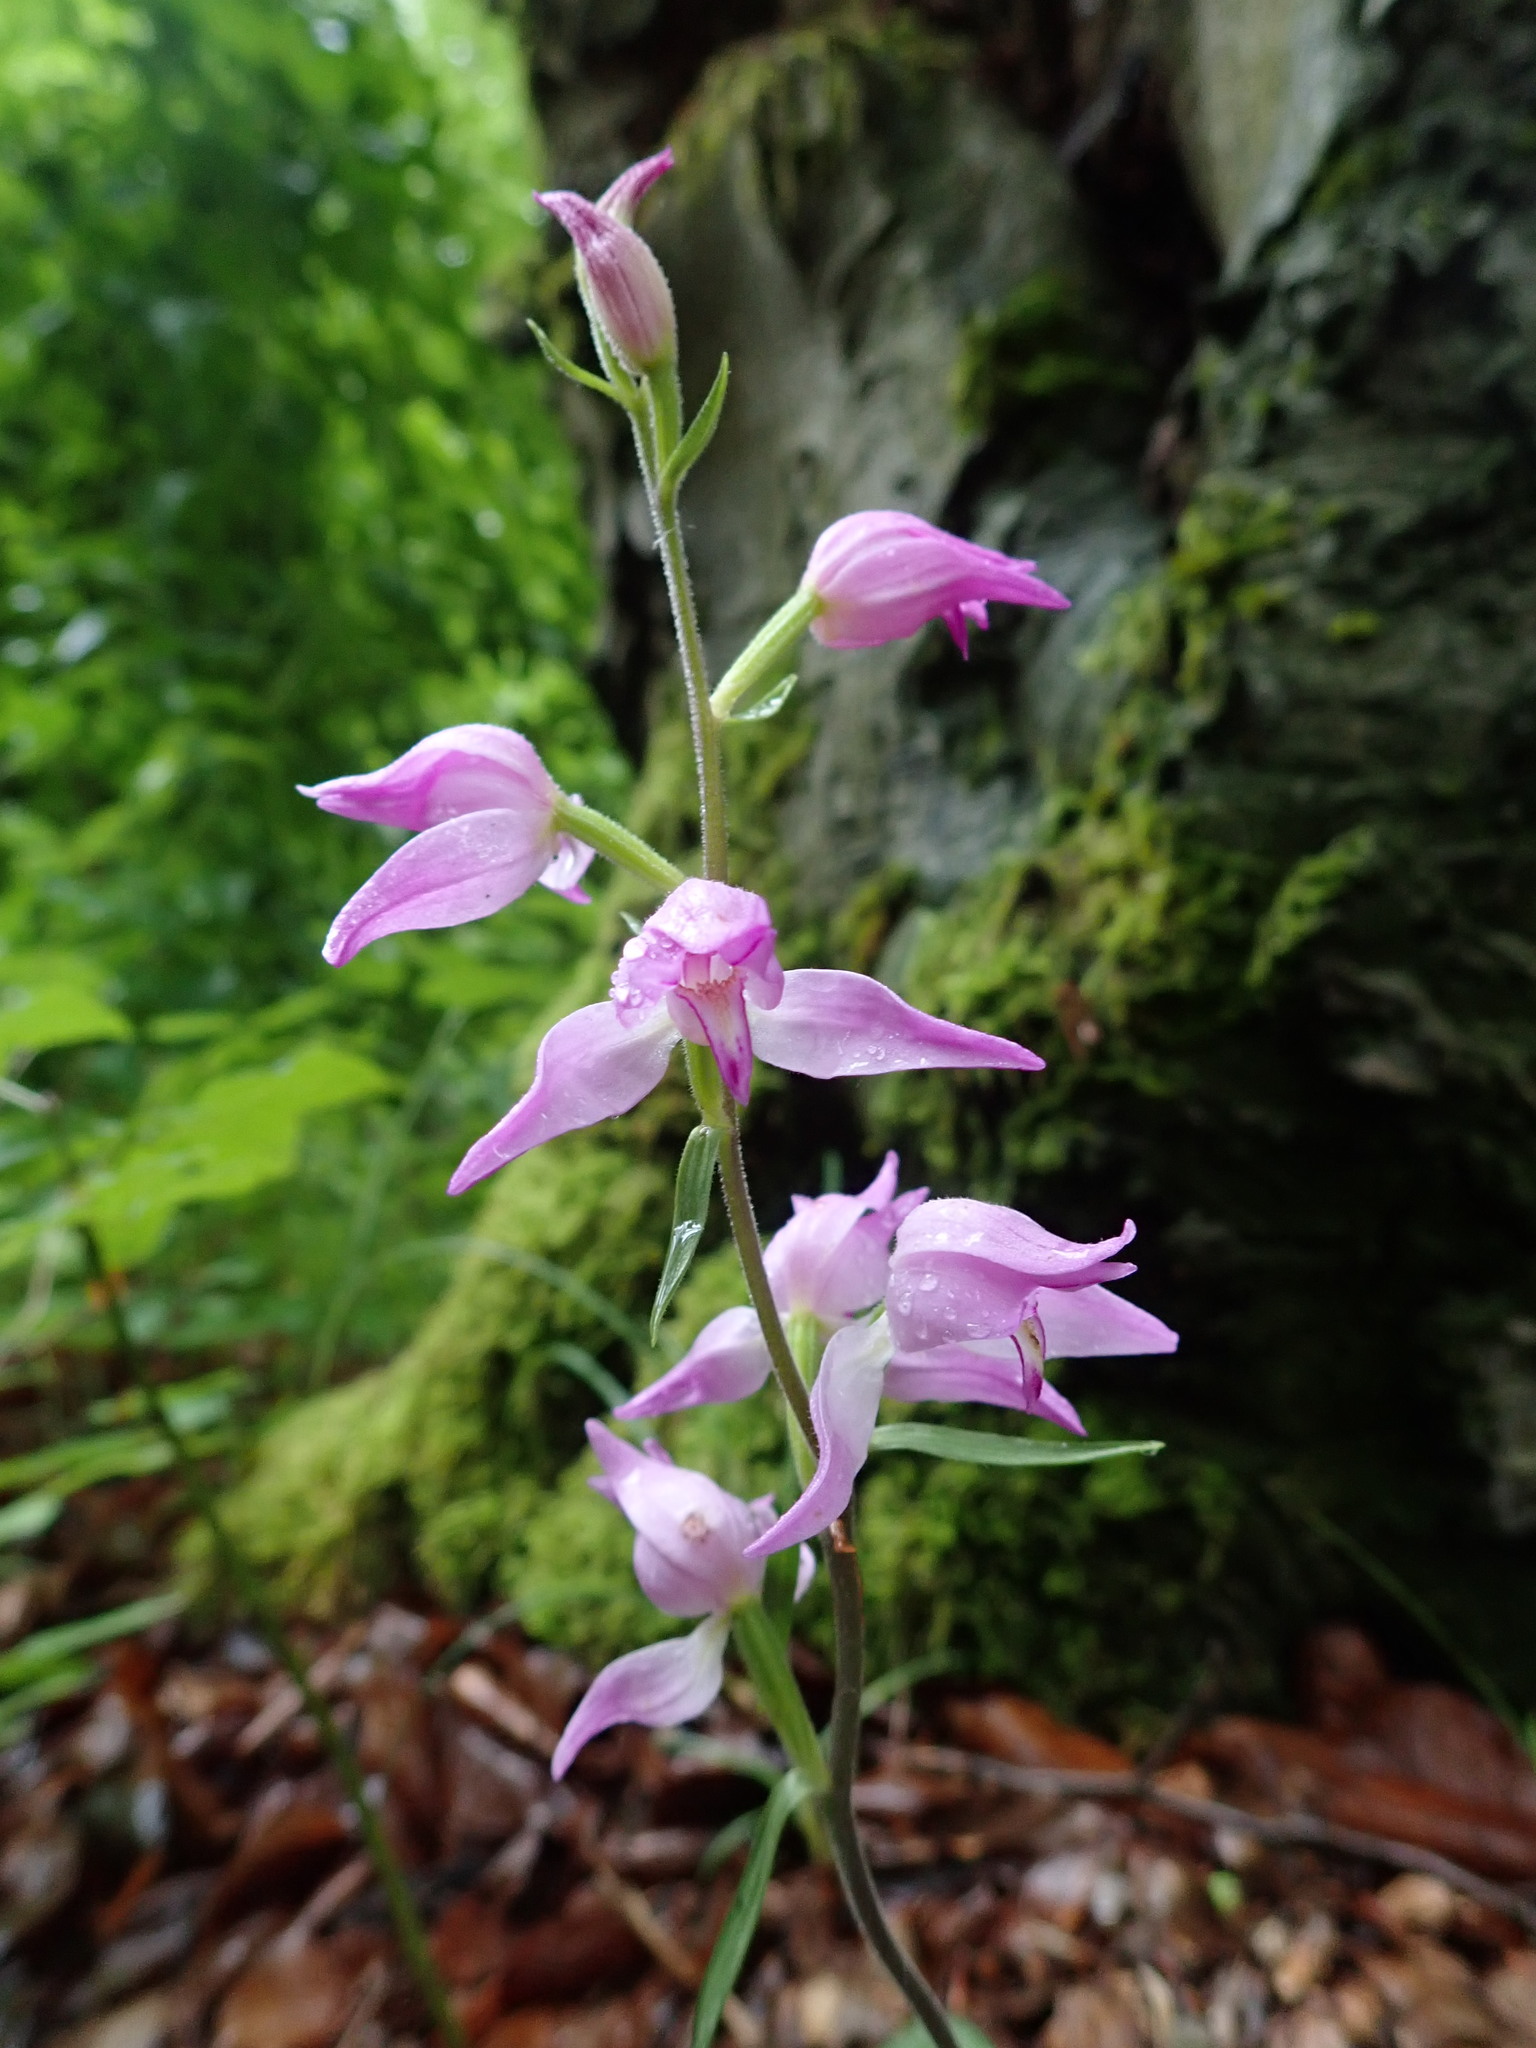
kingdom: Plantae
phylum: Tracheophyta
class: Liliopsida
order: Asparagales
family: Orchidaceae
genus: Cephalanthera
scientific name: Cephalanthera rubra
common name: Red helleborine
